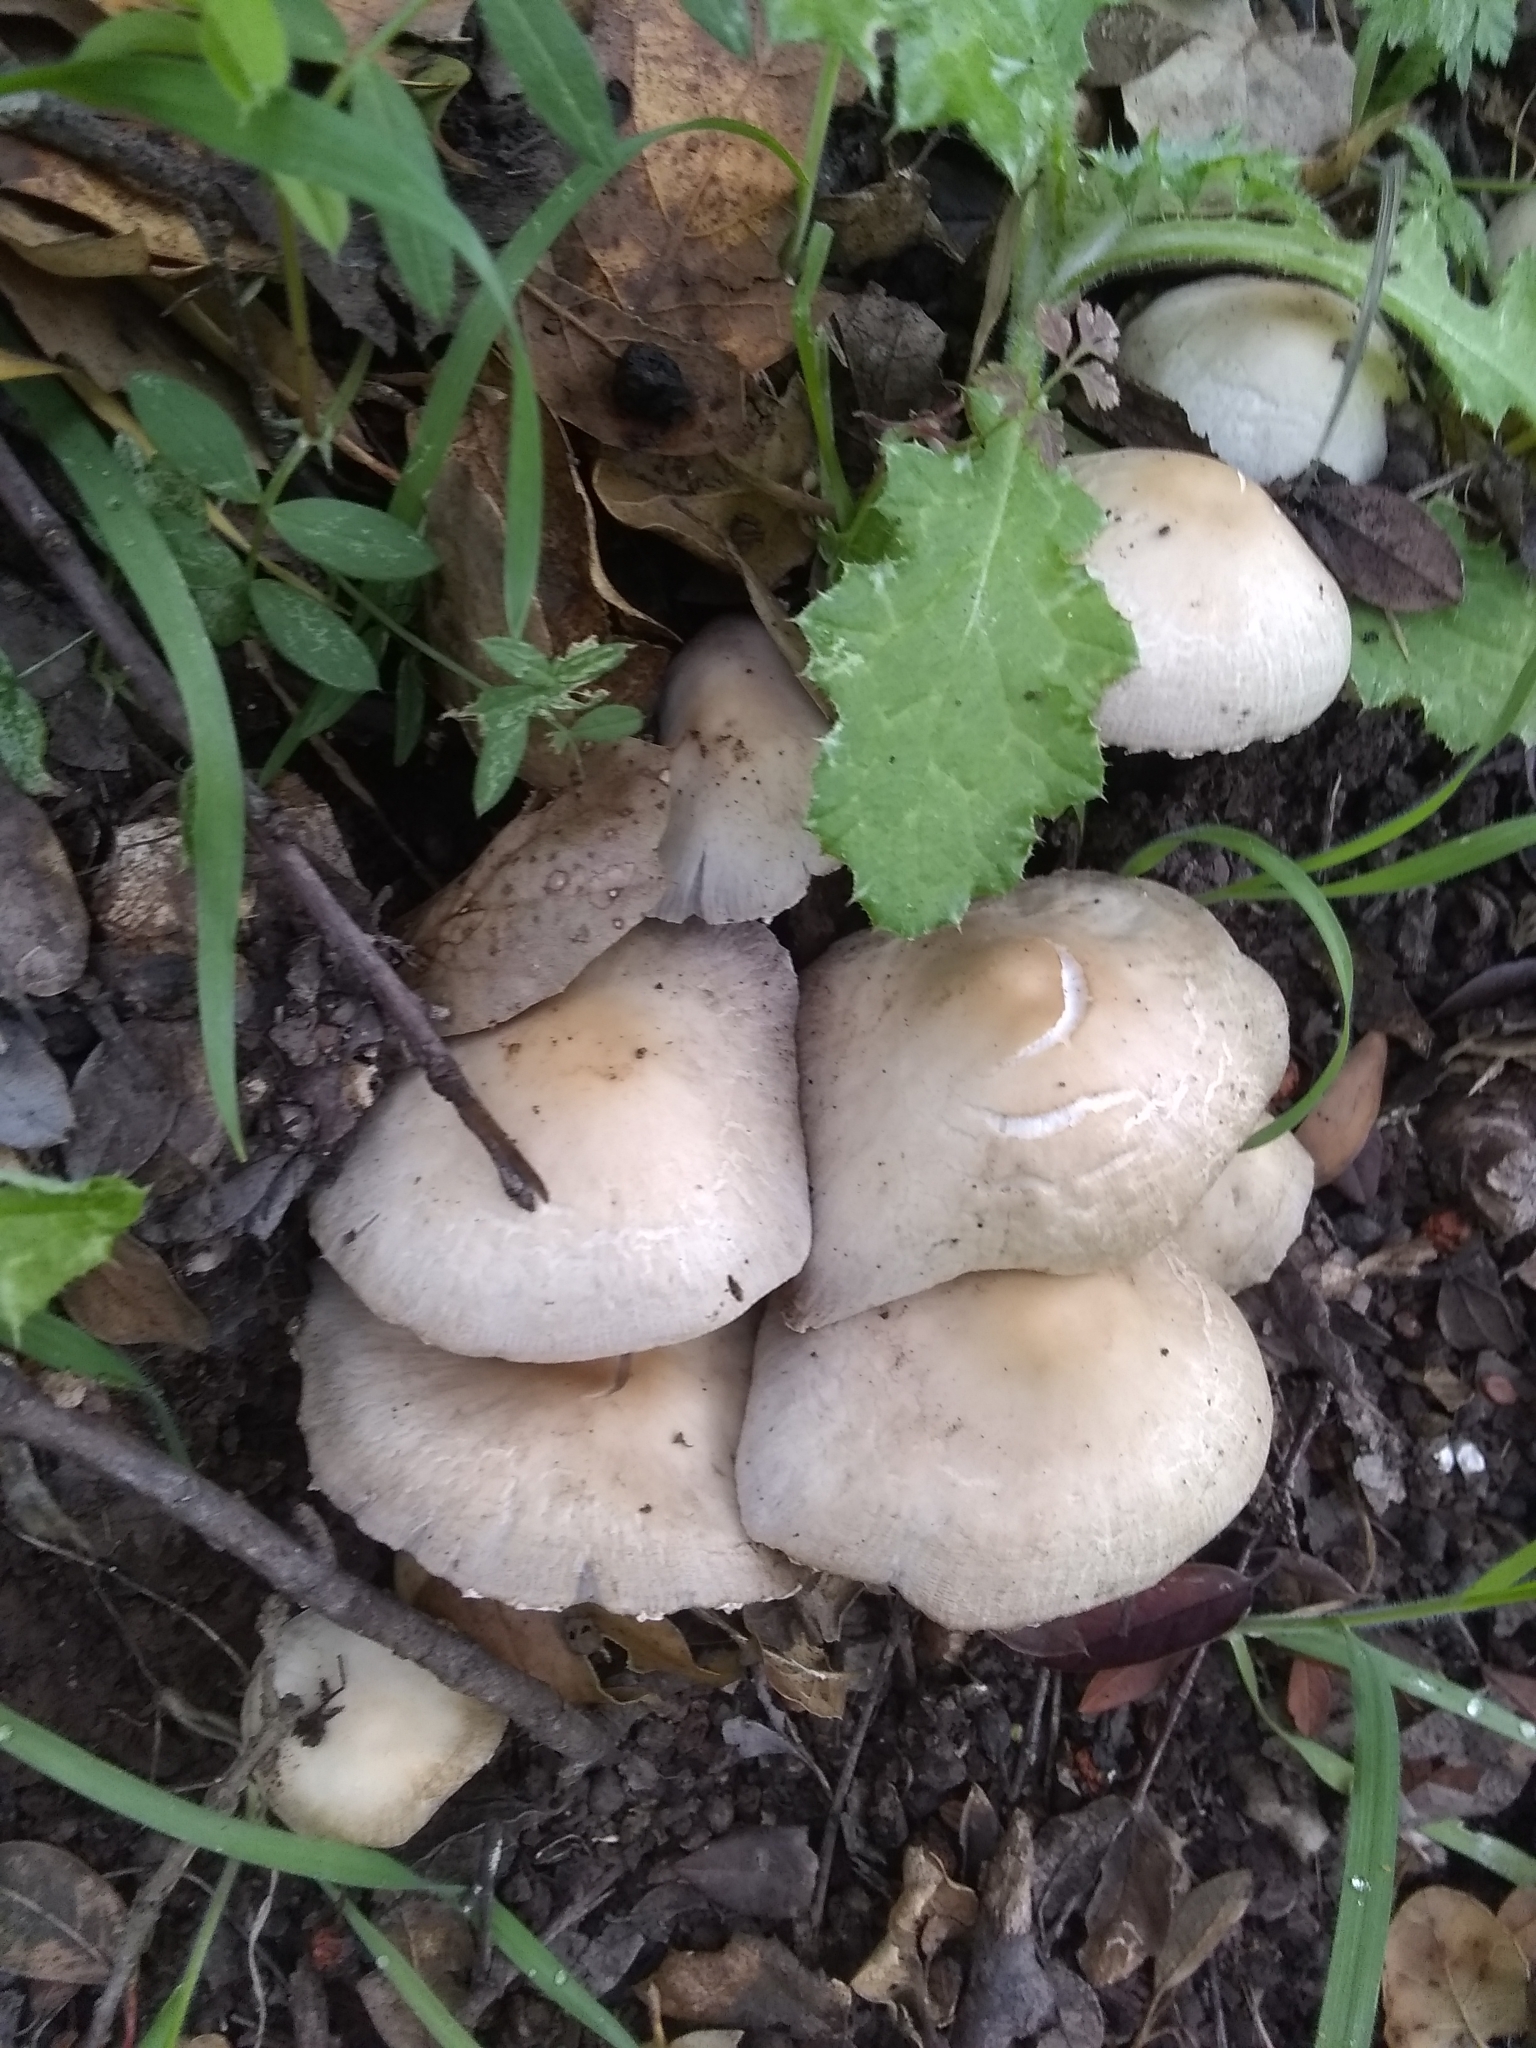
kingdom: Fungi
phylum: Basidiomycota
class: Agaricomycetes
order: Agaricales
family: Psathyrellaceae
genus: Candolleomyces
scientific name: Candolleomyces candolleanus
